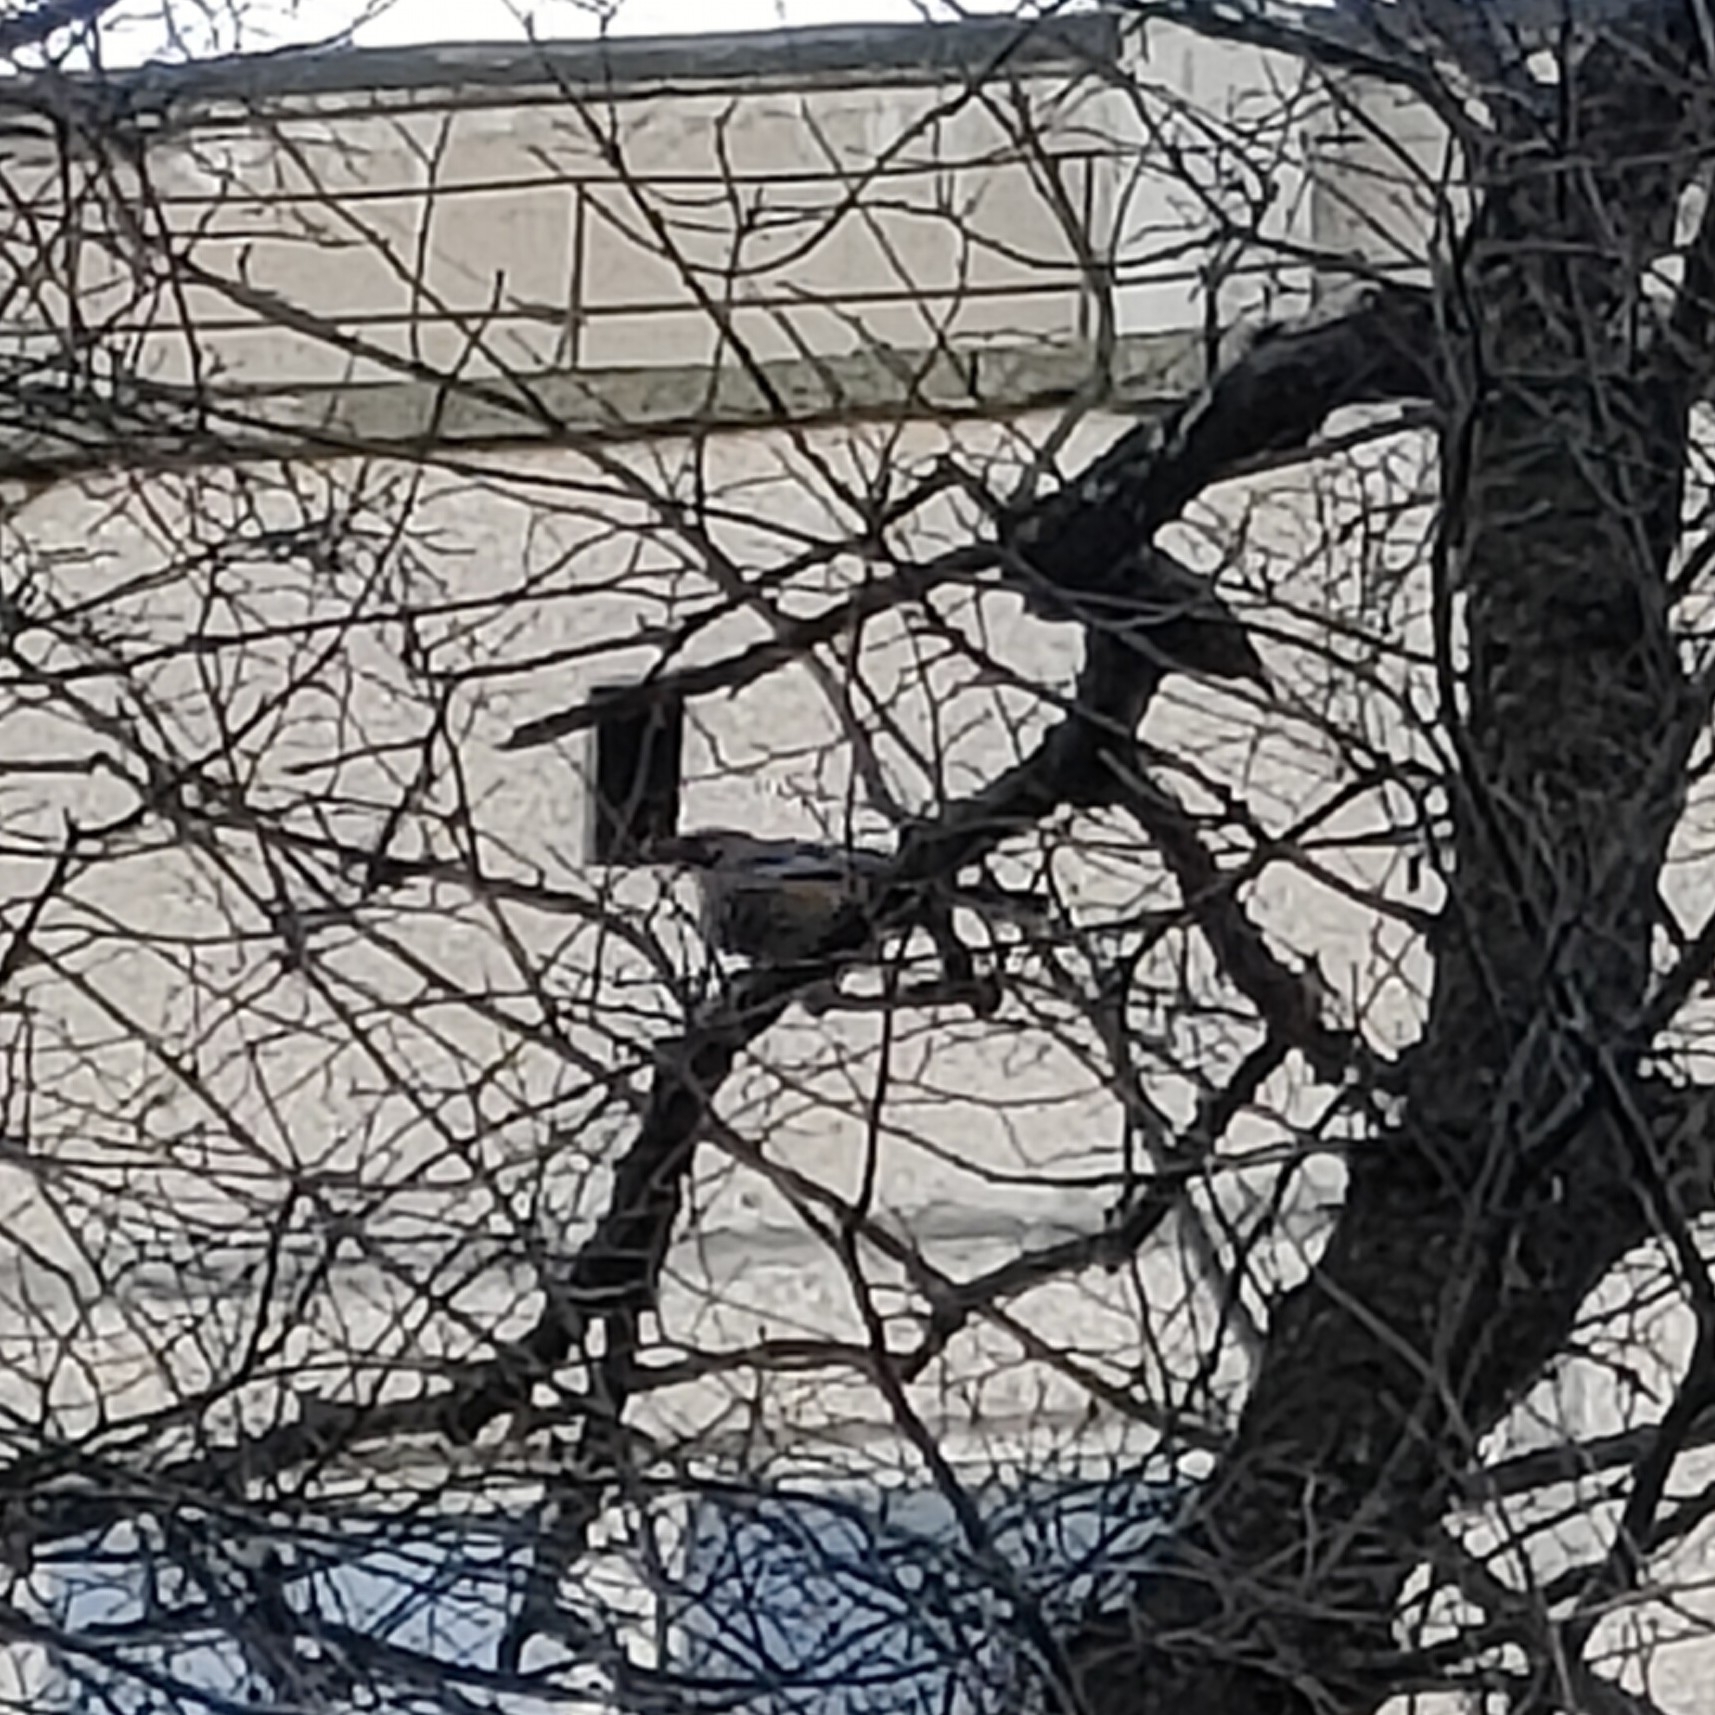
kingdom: Animalia
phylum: Chordata
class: Aves
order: Passeriformes
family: Corvidae
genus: Garrulus
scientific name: Garrulus glandarius
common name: Eurasian jay
